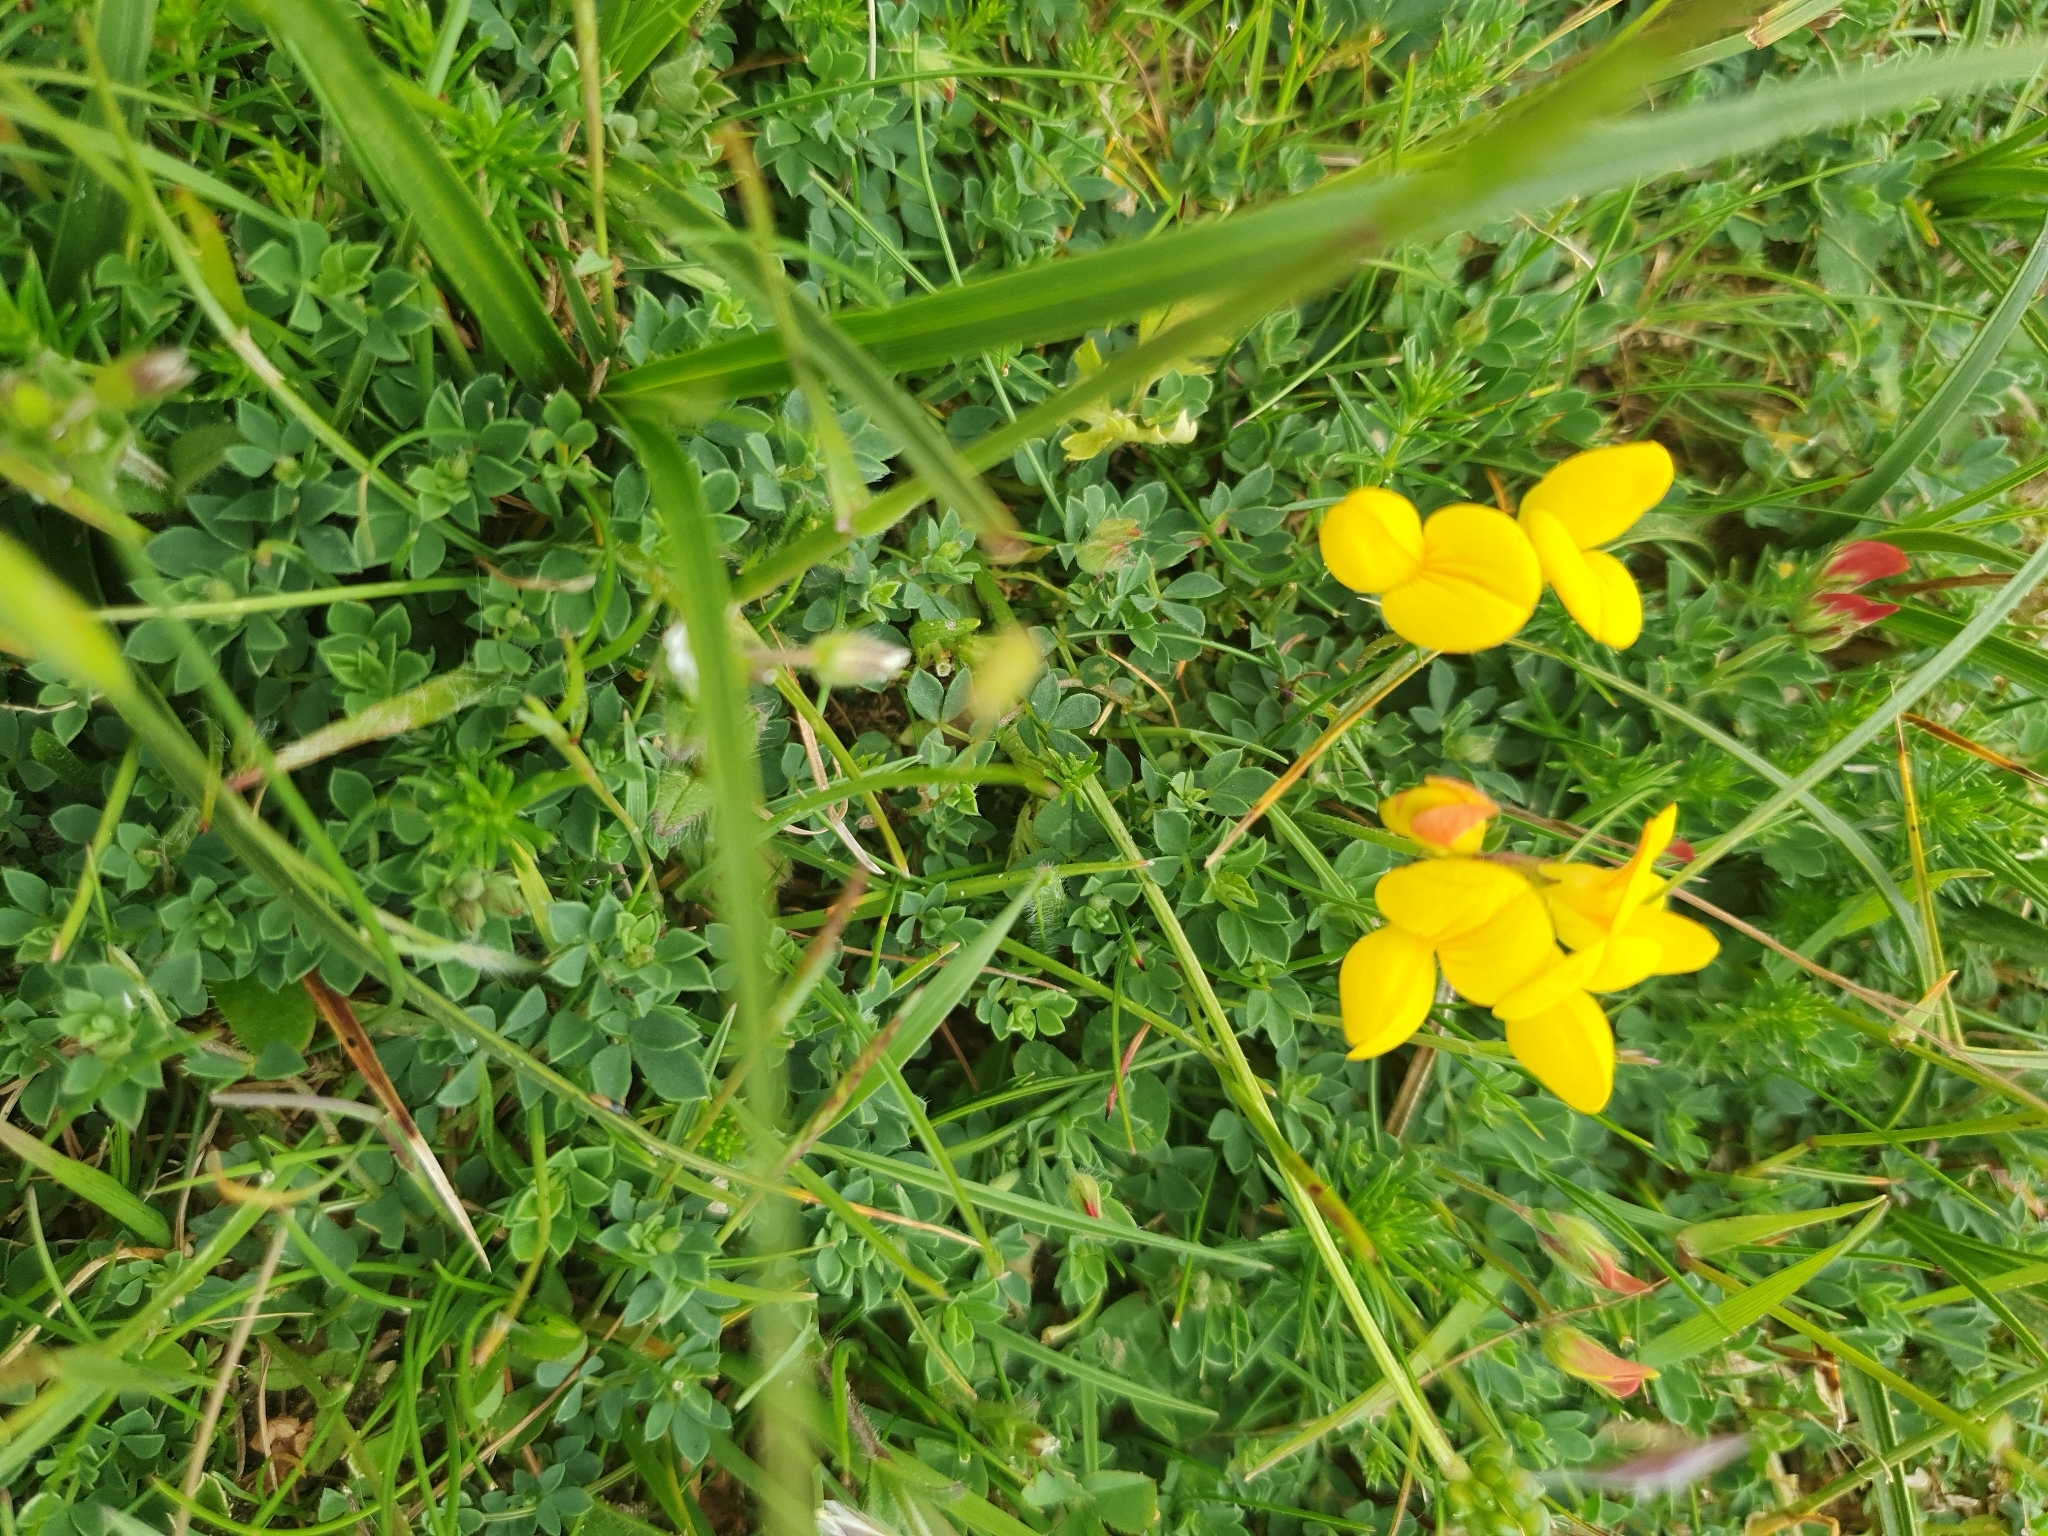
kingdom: Plantae
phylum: Tracheophyta
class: Magnoliopsida
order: Fabales
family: Fabaceae
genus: Lotus
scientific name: Lotus corniculatus
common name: Common bird's-foot-trefoil
